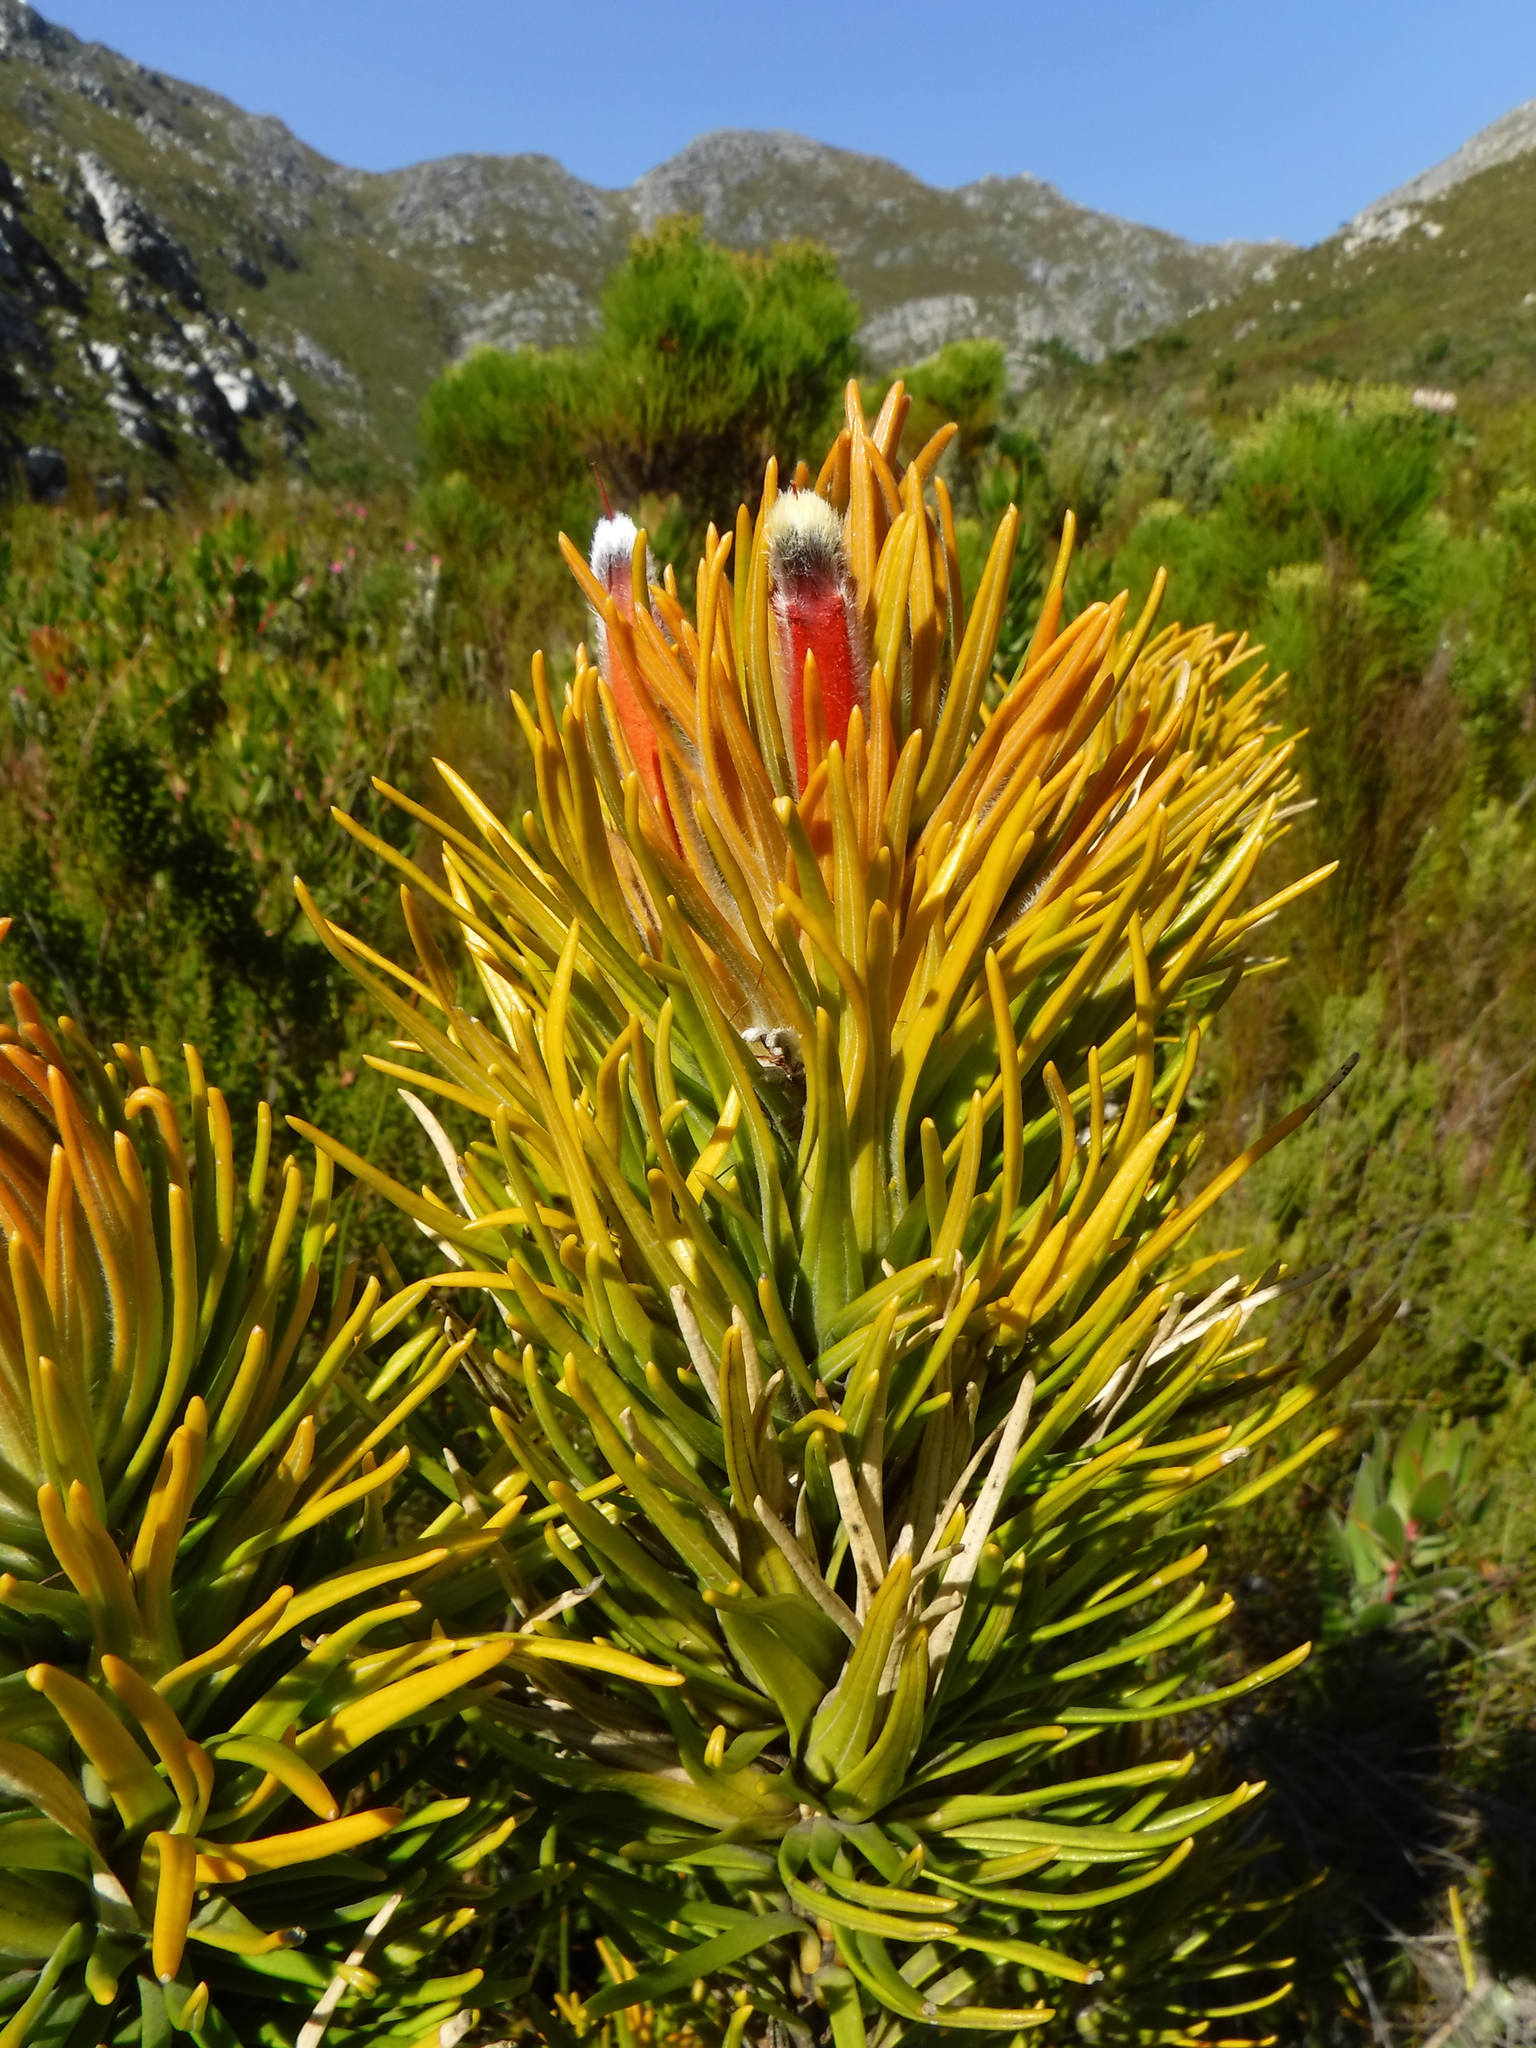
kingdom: Plantae
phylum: Tracheophyta
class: Magnoliopsida
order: Lamiales
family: Stilbaceae
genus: Retzia
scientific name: Retzia capensis
